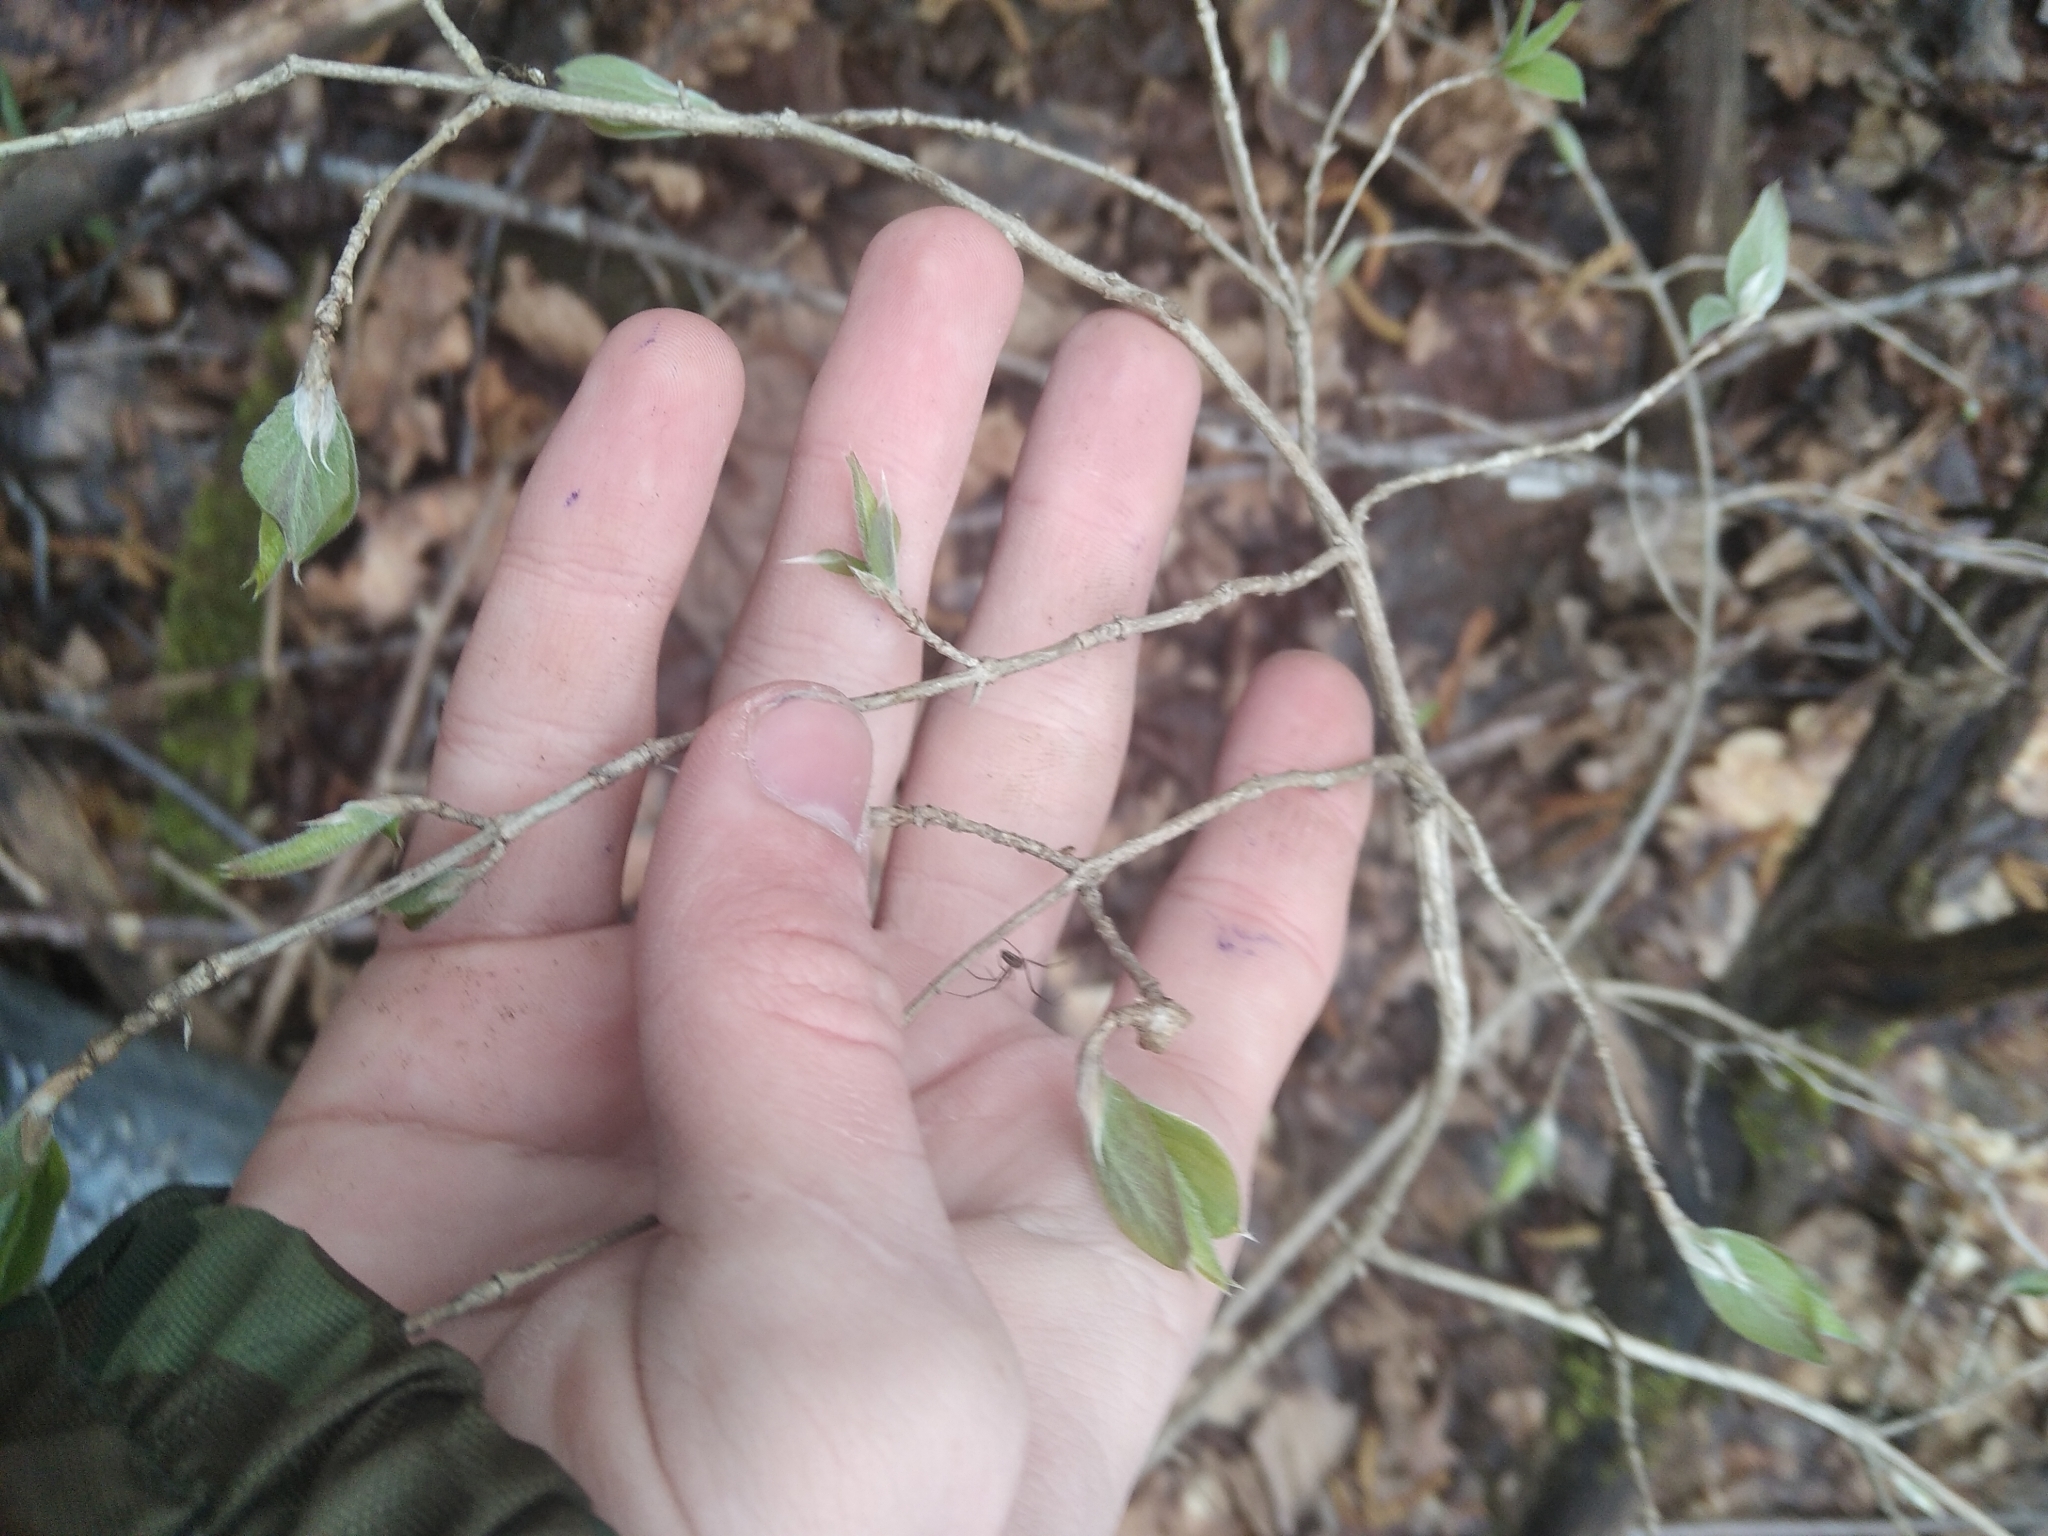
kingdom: Plantae
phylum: Tracheophyta
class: Magnoliopsida
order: Dipsacales
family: Caprifoliaceae
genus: Lonicera
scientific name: Lonicera xylosteum
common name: Fly honeysuckle
